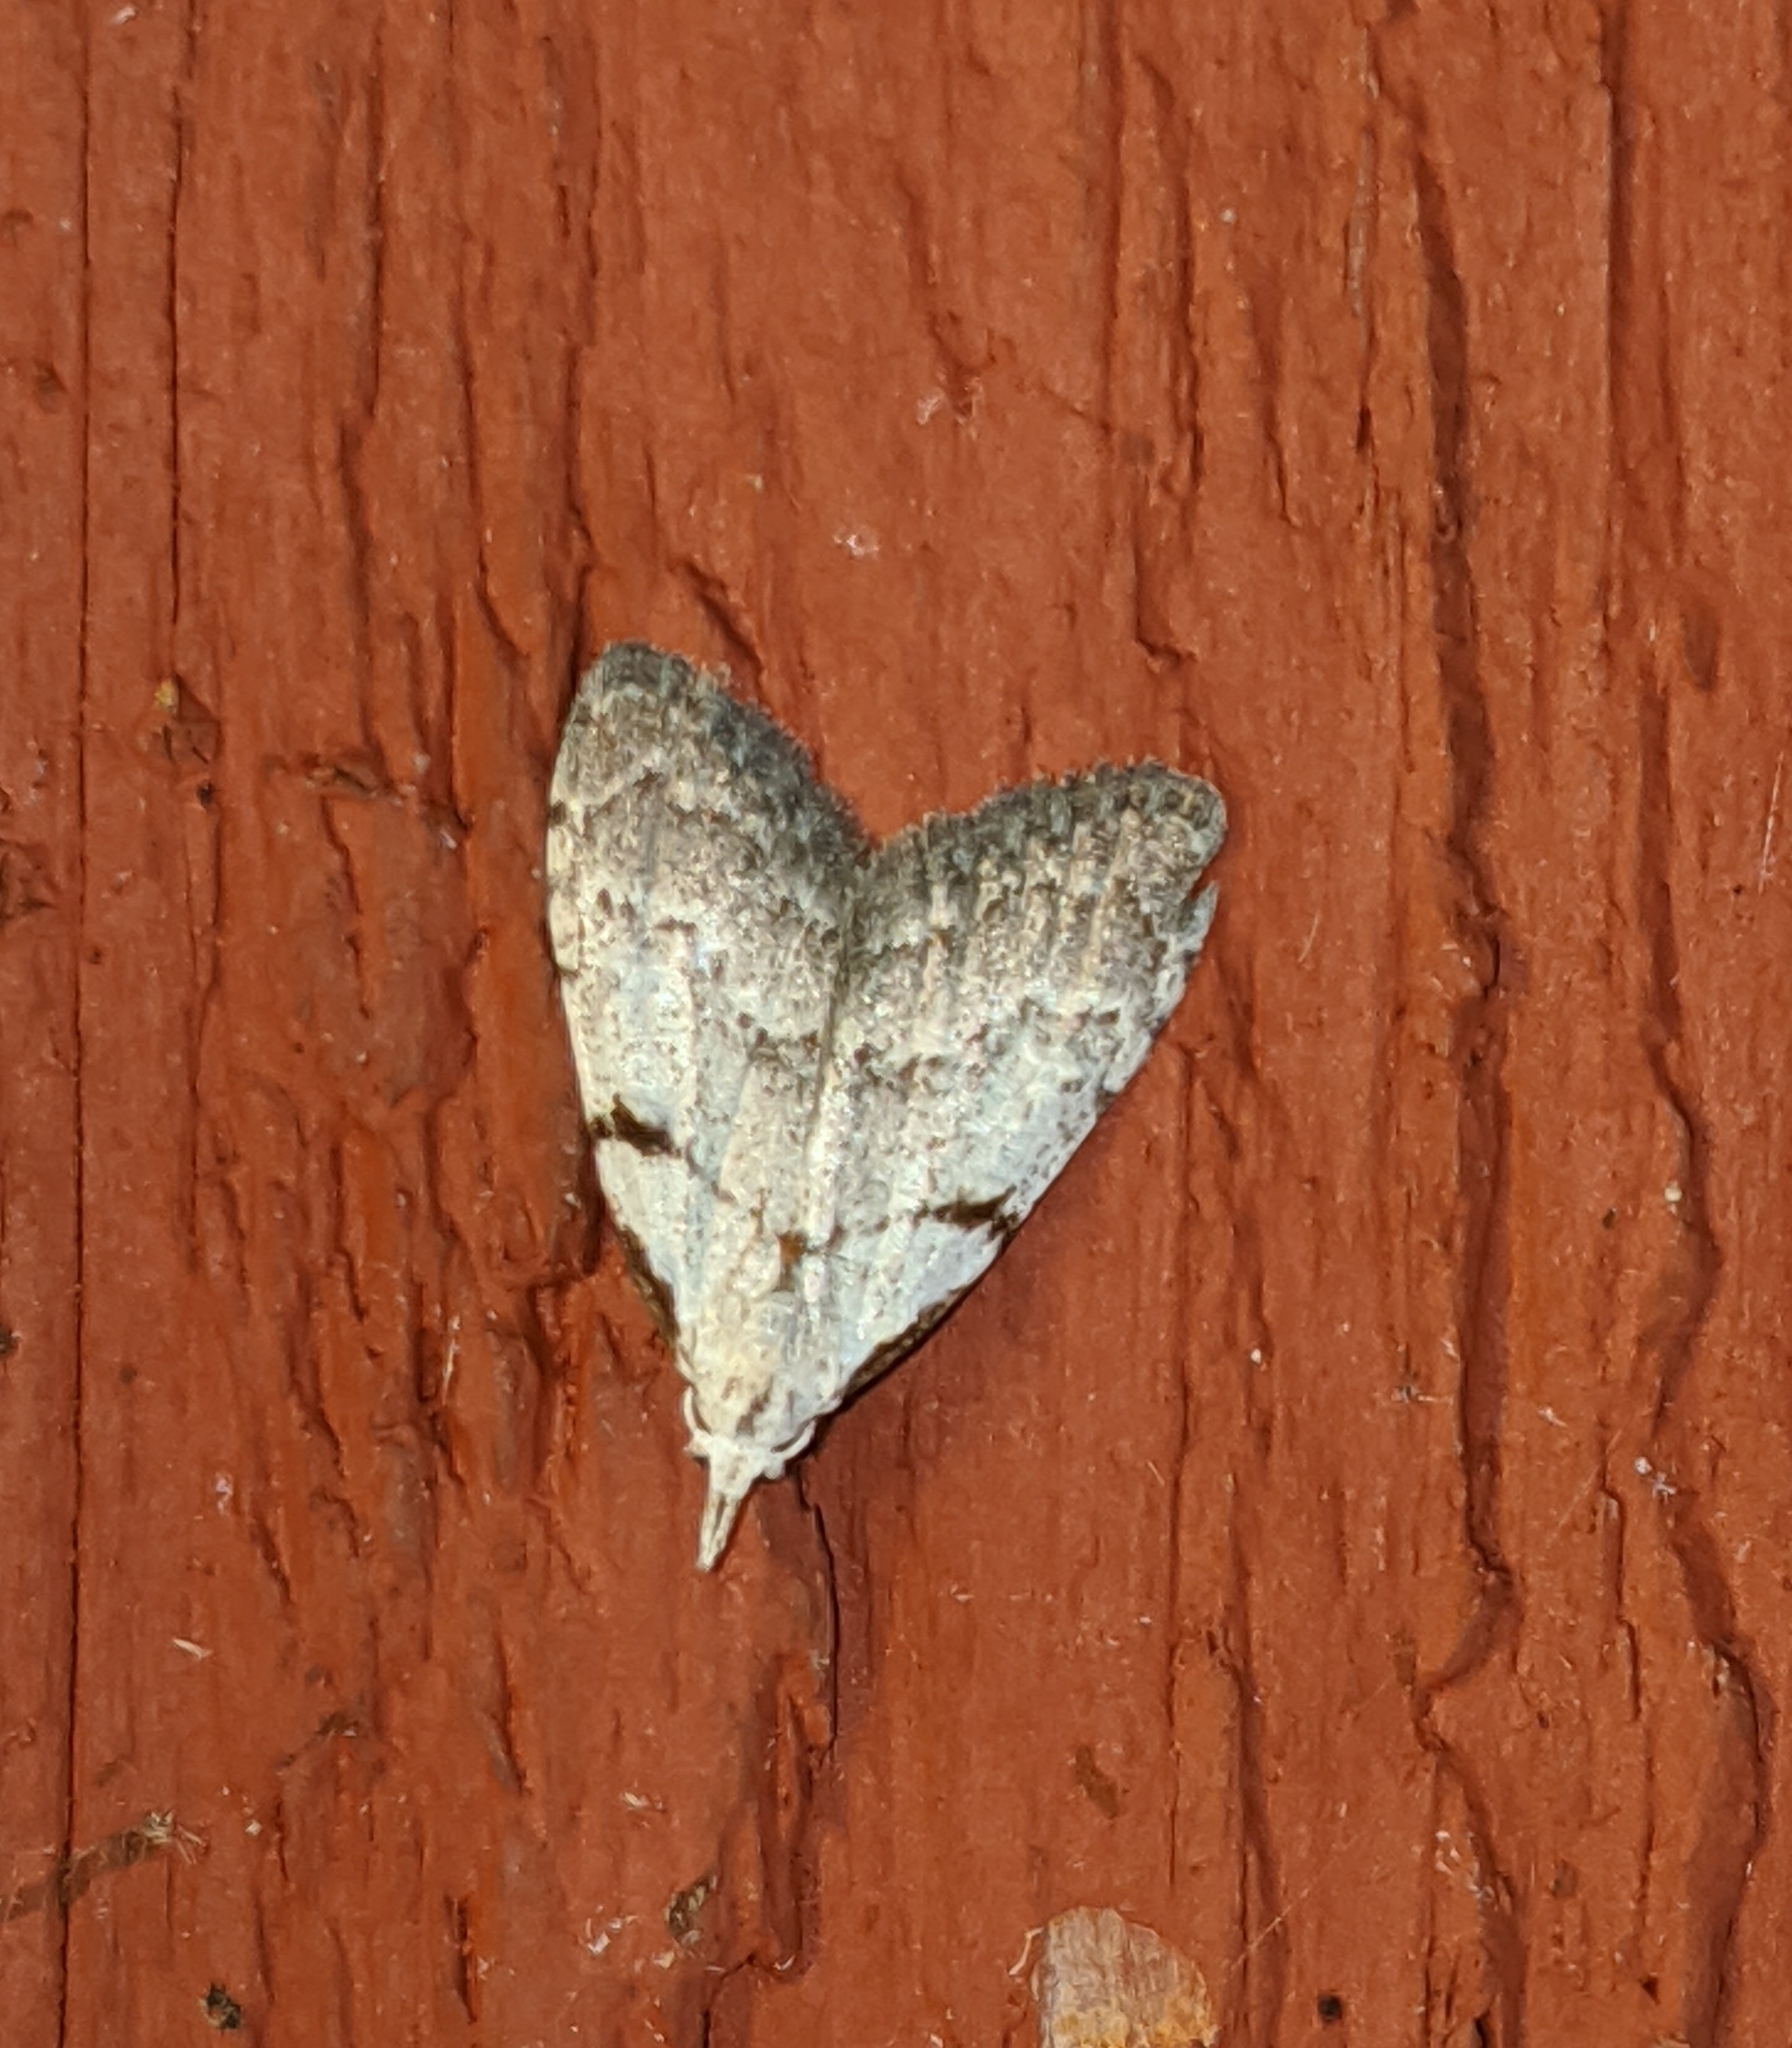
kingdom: Animalia
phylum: Arthropoda
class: Insecta
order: Lepidoptera
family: Nolidae
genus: Nola
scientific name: Nola minna
